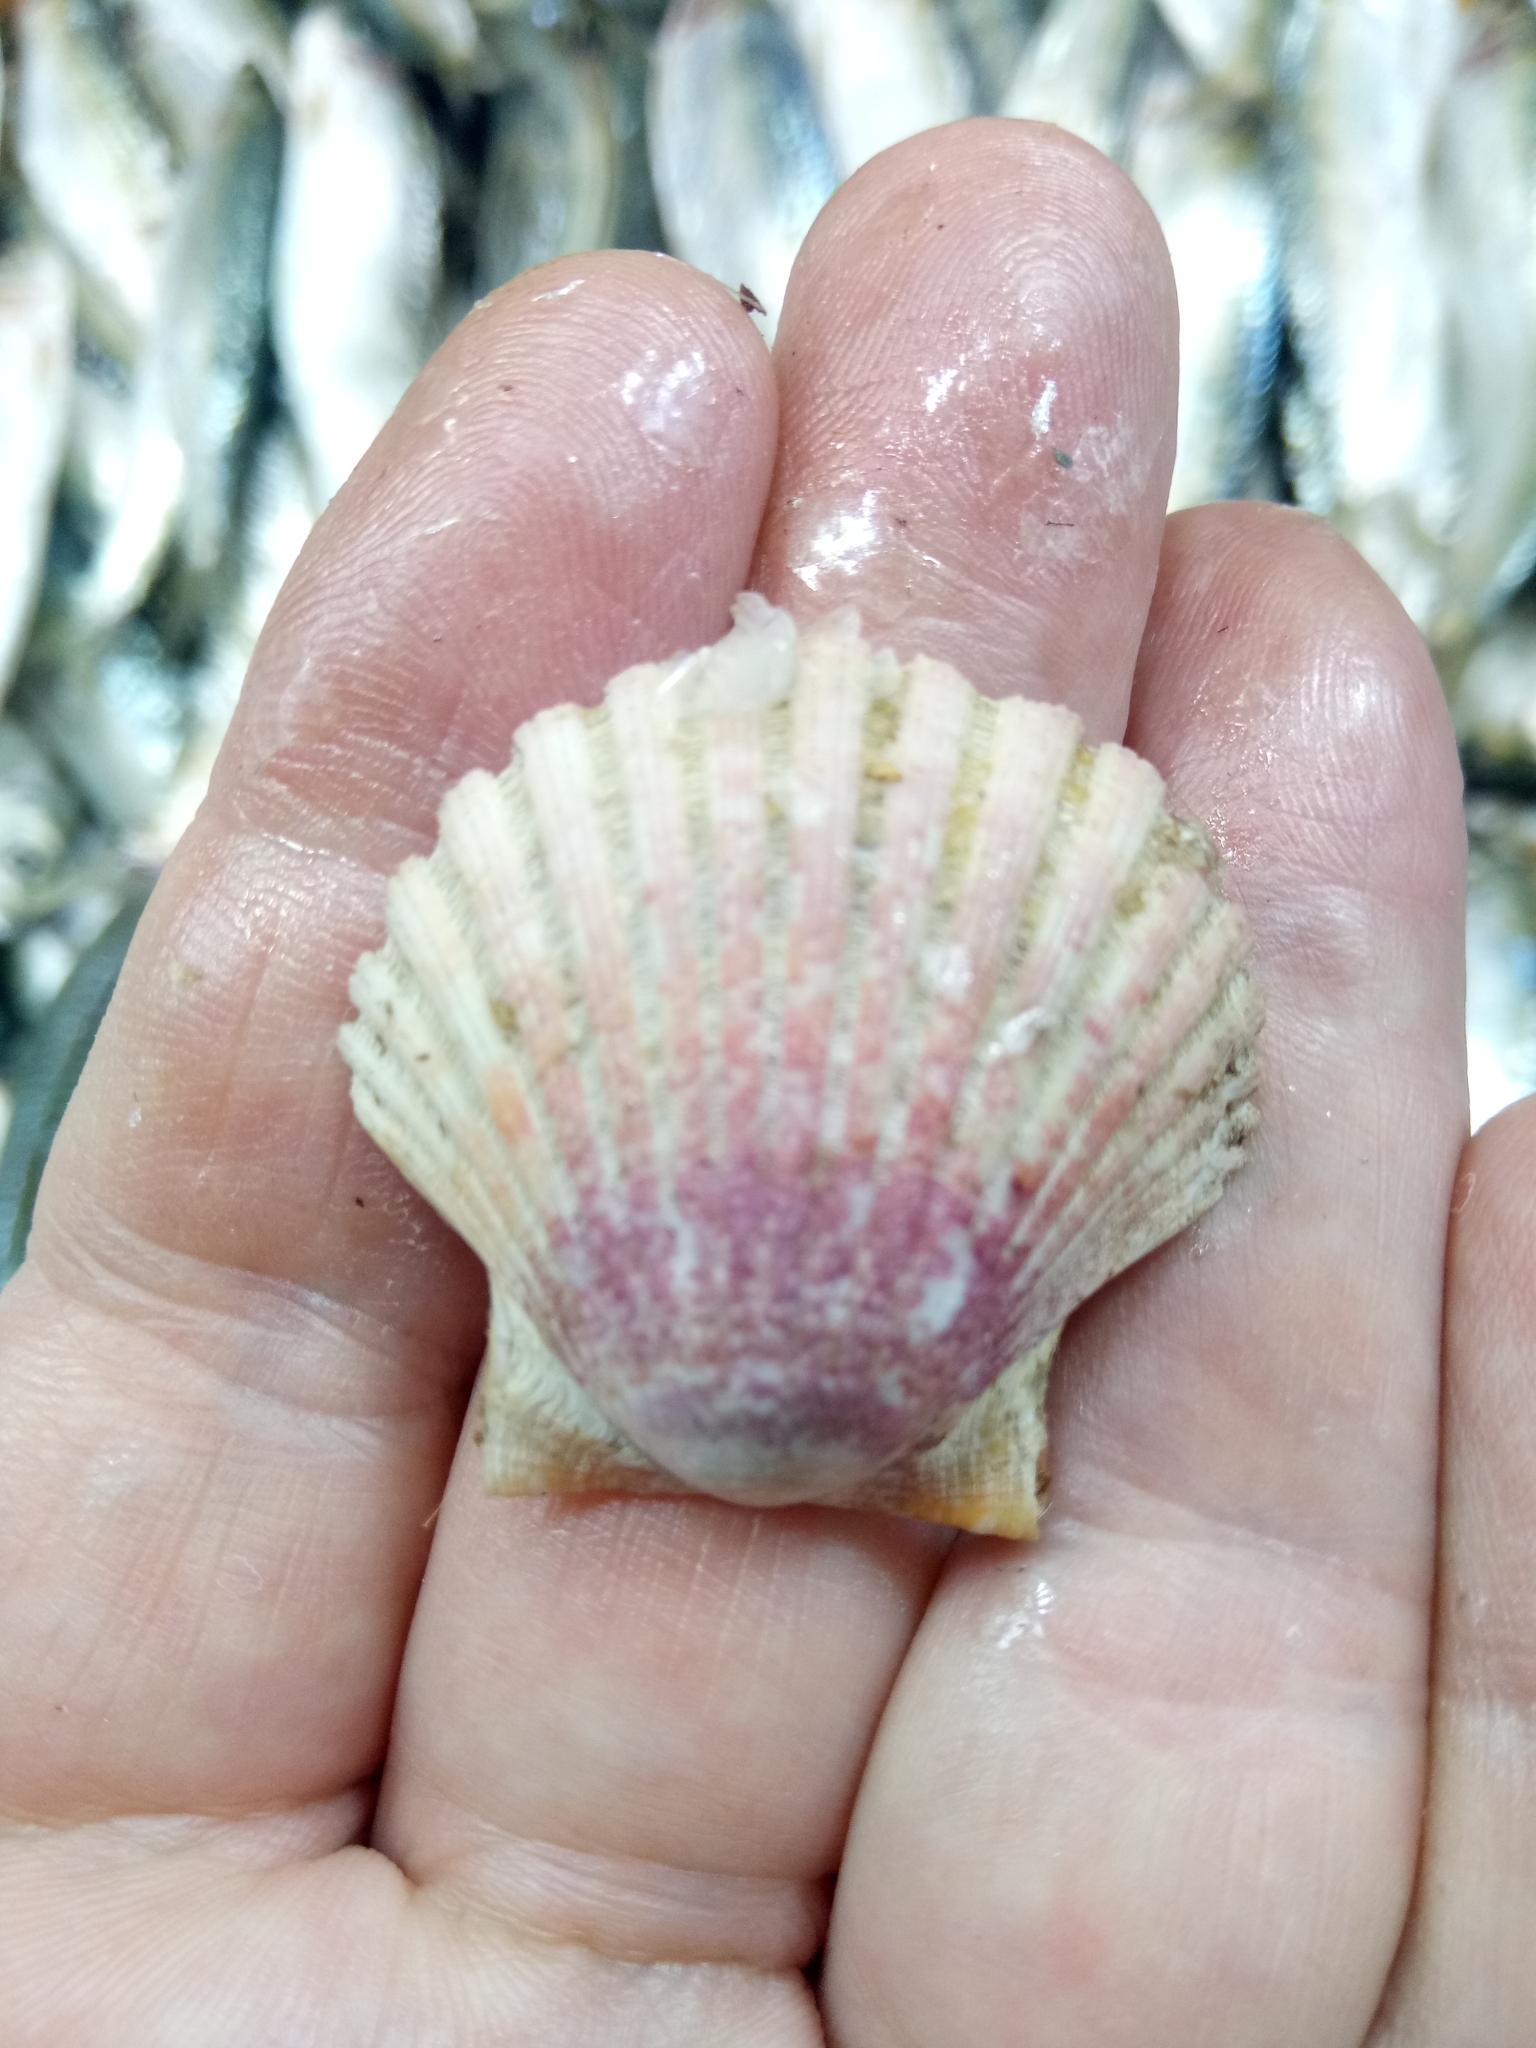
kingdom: Animalia
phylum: Mollusca
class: Bivalvia
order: Pectinida
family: Pectinidae
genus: Pecten
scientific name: Pecten jacobaeus
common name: St.james's scallop
